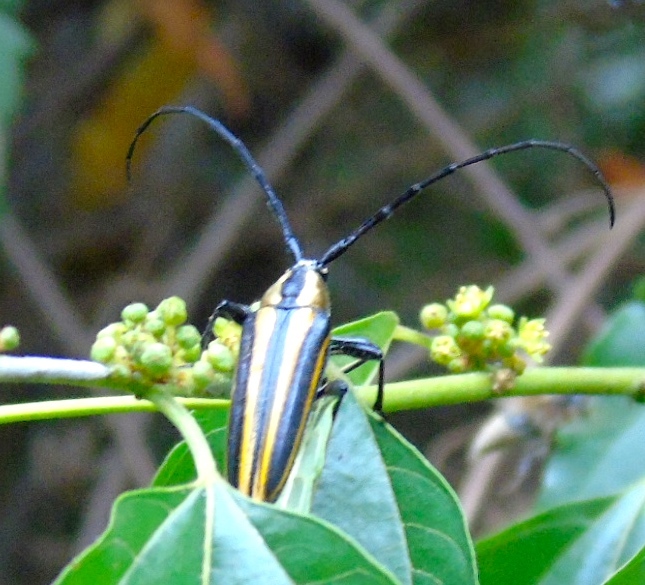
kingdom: Animalia
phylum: Arthropoda
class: Insecta
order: Coleoptera
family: Cerambycidae
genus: Sphaenothecus
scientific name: Sphaenothecus argenteus
